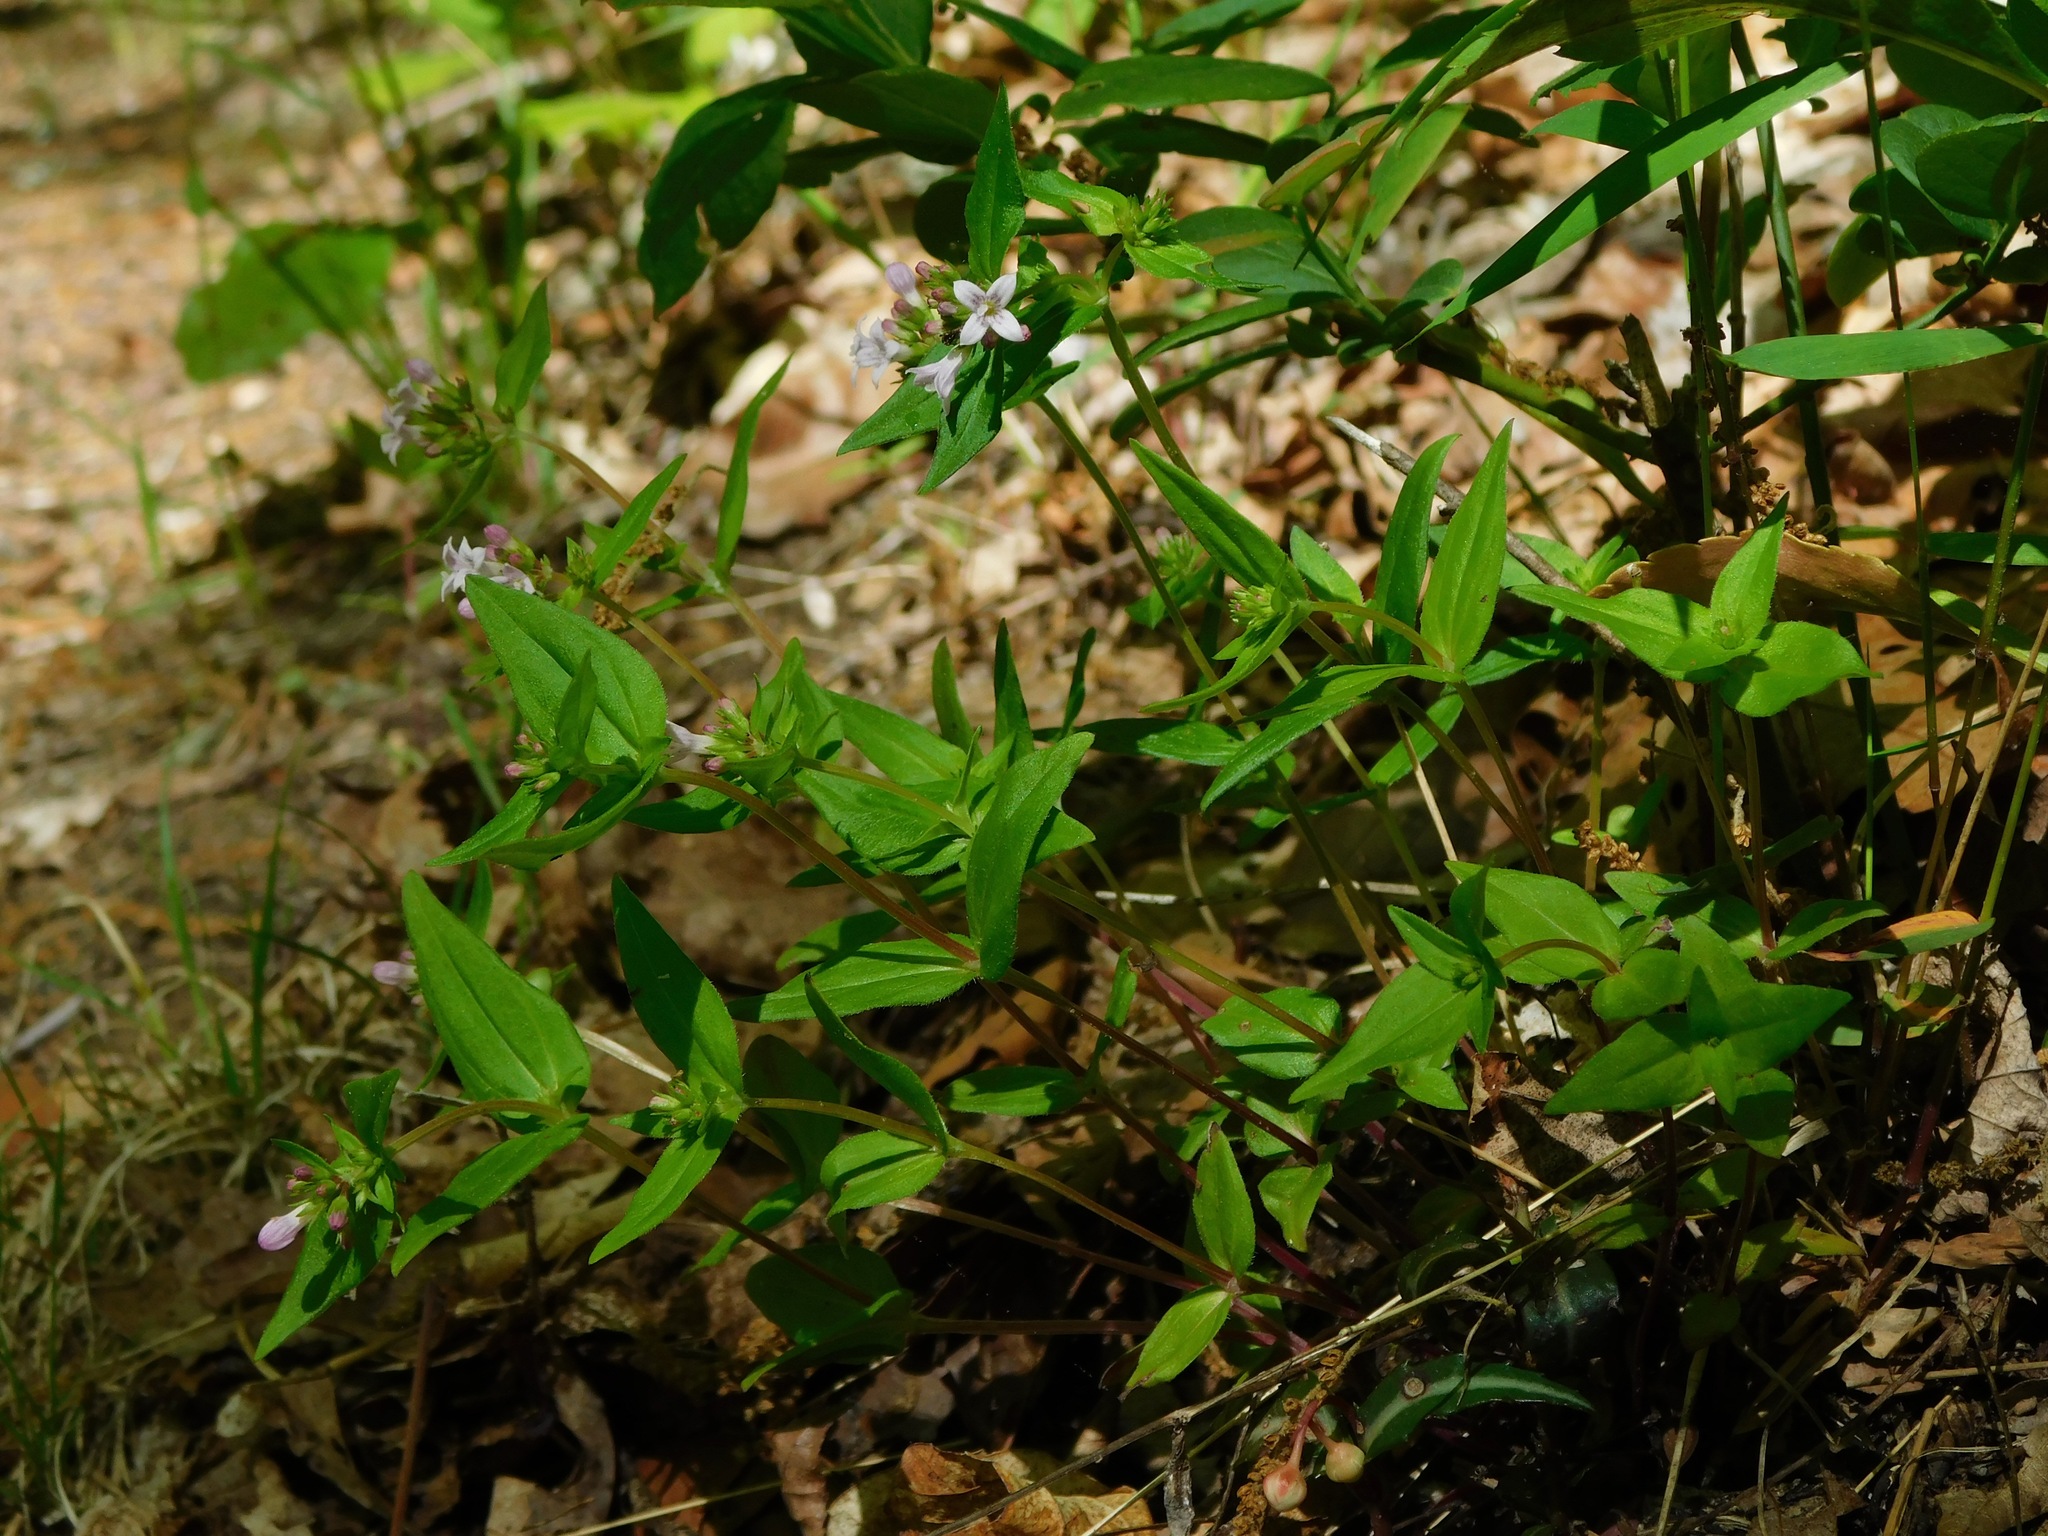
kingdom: Plantae
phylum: Tracheophyta
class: Magnoliopsida
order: Gentianales
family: Rubiaceae
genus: Houstonia
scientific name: Houstonia purpurea
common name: Summer bluet
